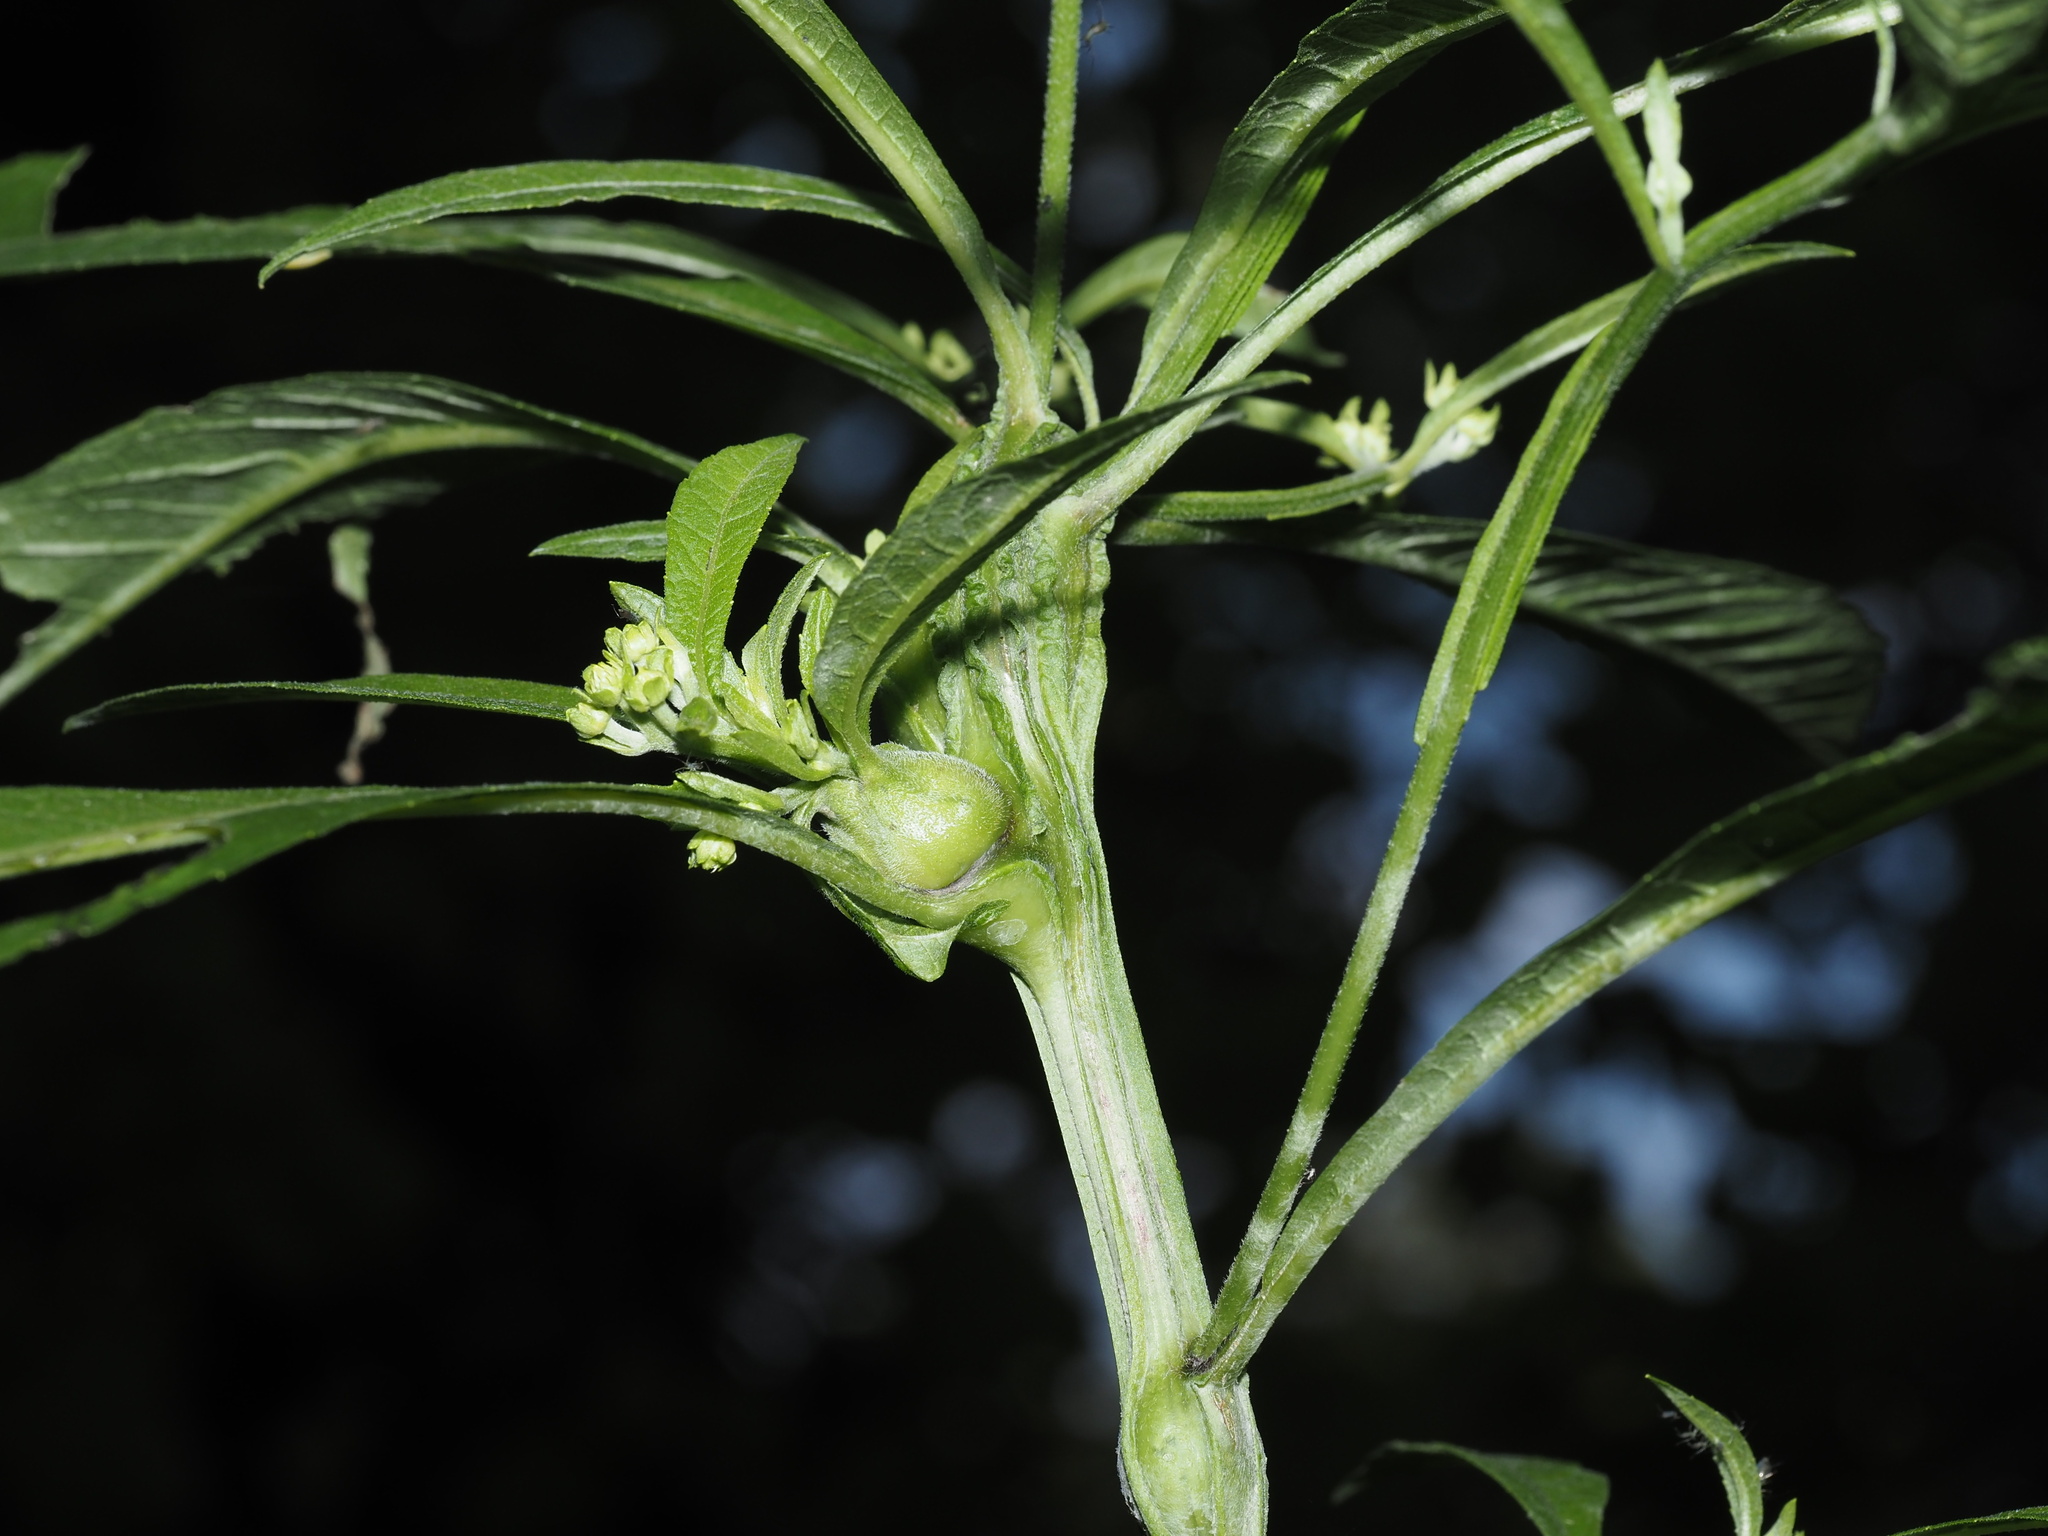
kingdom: Animalia
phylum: Arthropoda
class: Insecta
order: Diptera
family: Cecidomyiidae
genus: Neolasioptera
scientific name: Neolasioptera verbesinae
